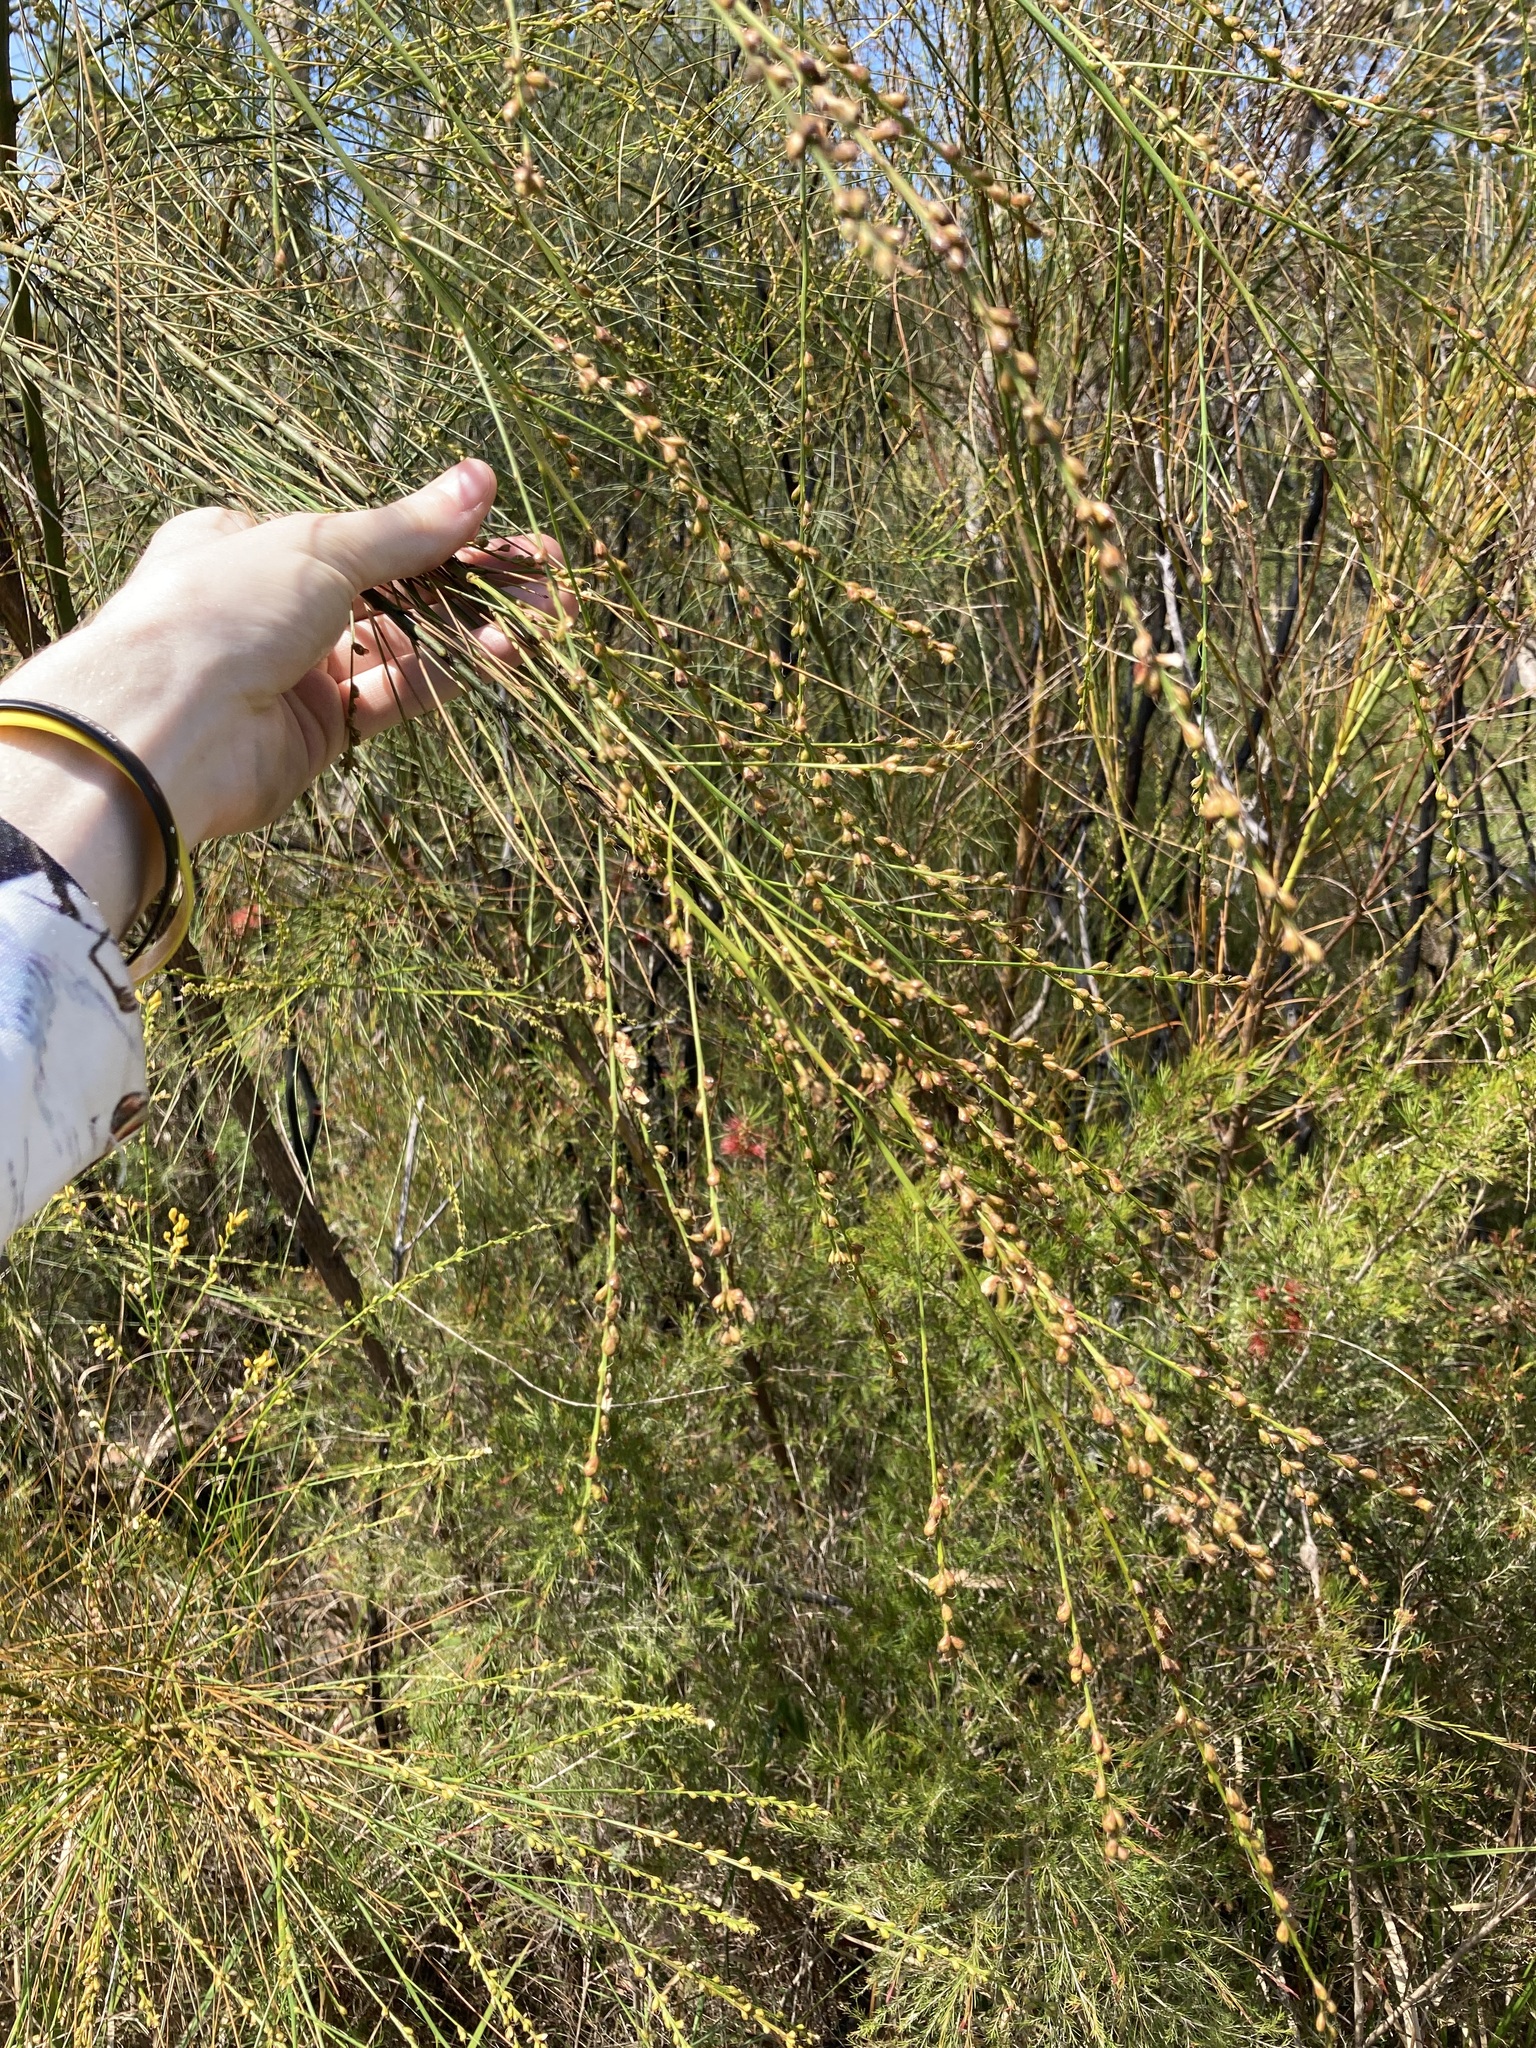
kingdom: Plantae
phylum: Tracheophyta
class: Magnoliopsida
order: Fabales
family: Fabaceae
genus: Viminaria
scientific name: Viminaria juncea
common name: Golden spray
